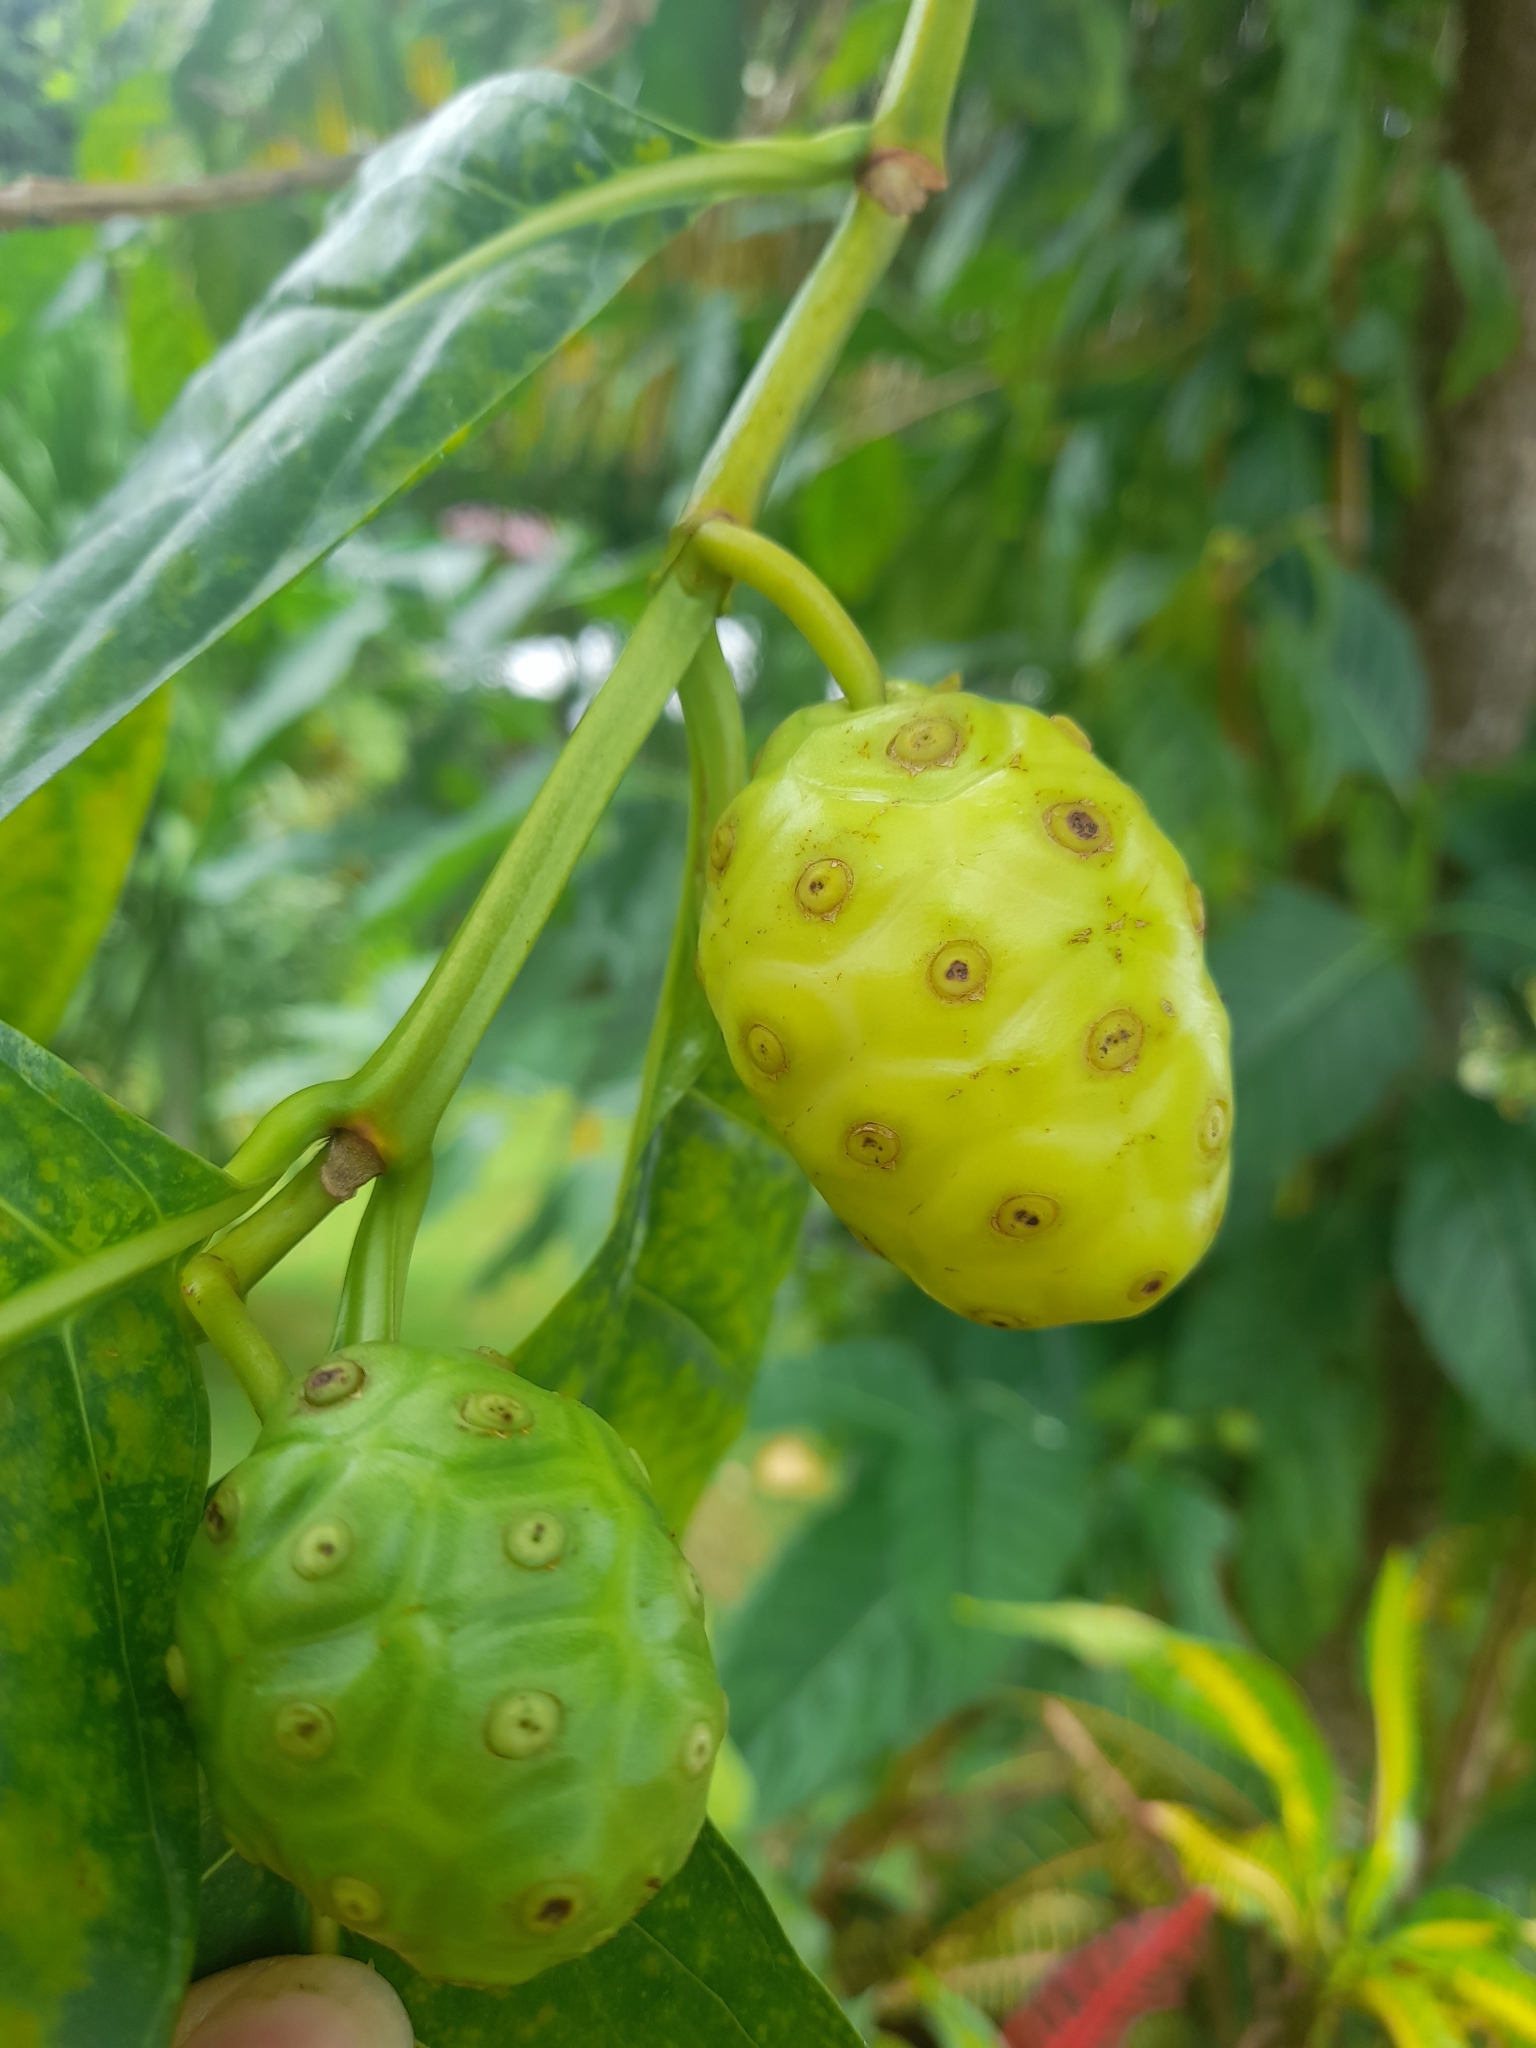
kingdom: Plantae
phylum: Tracheophyta
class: Magnoliopsida
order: Gentianales
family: Rubiaceae
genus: Morinda
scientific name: Morinda citrifolia
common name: Indian-mulberry
